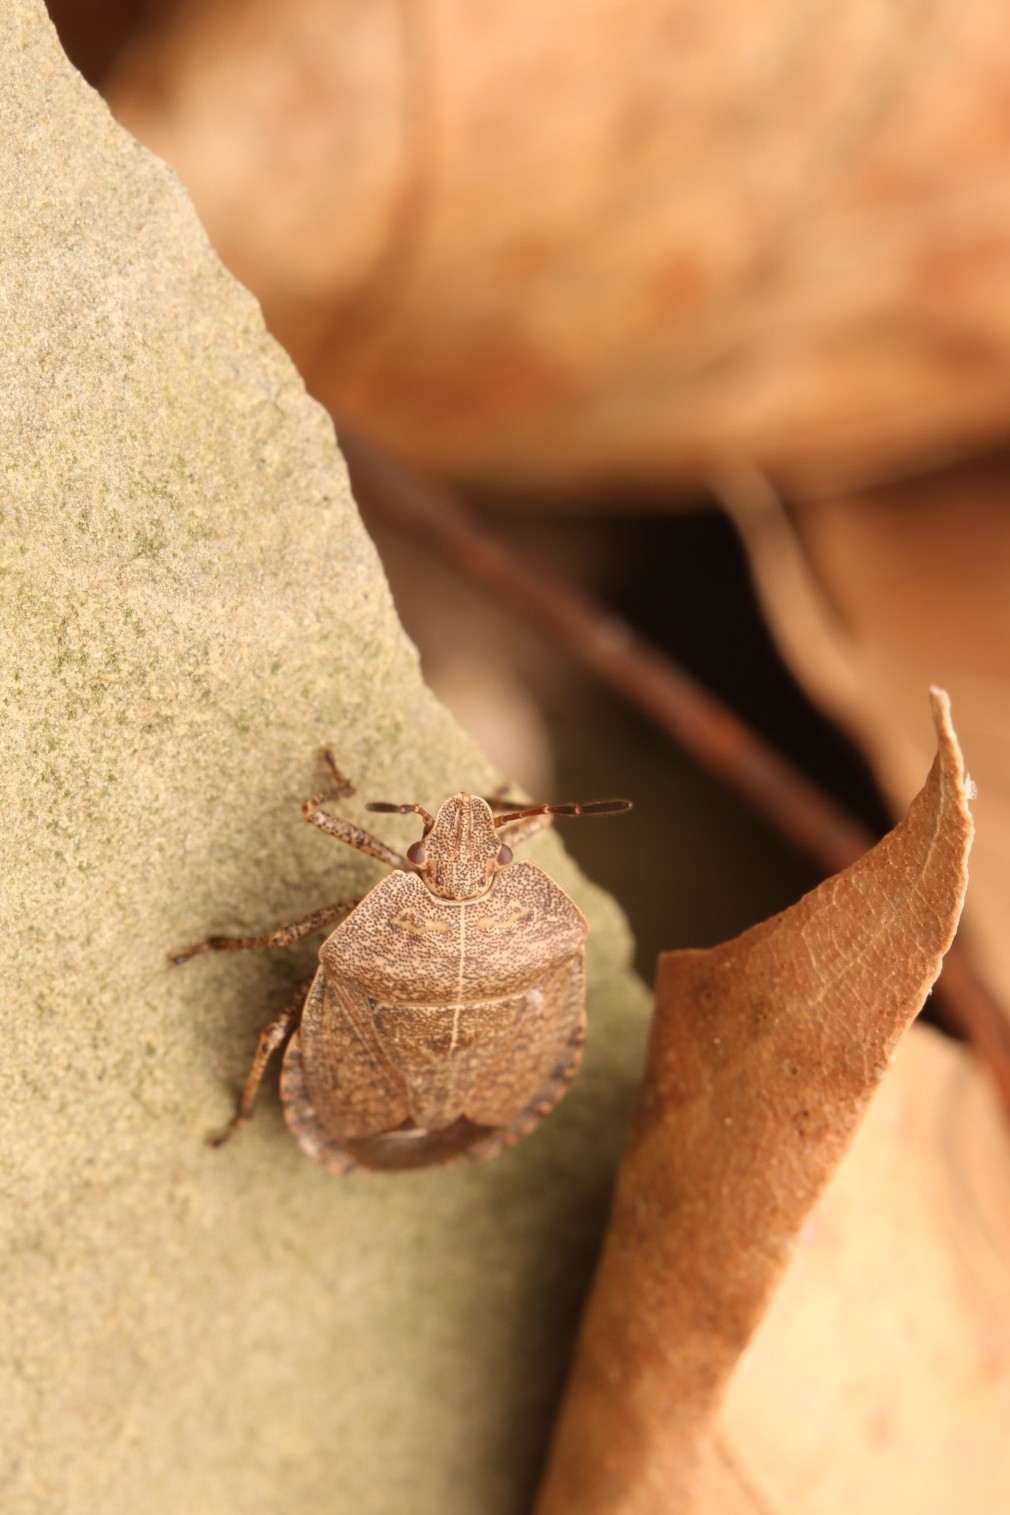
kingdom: Animalia
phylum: Arthropoda
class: Insecta
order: Hemiptera
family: Pentatomidae
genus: Menecles
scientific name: Menecles insertus
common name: Elf shoe stink bug
